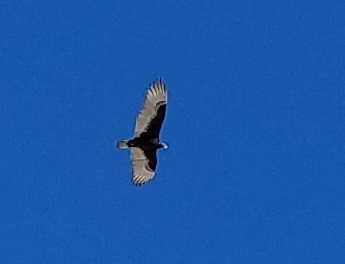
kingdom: Animalia
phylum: Chordata
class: Aves
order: Accipitriformes
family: Cathartidae
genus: Cathartes
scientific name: Cathartes aura
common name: Turkey vulture
